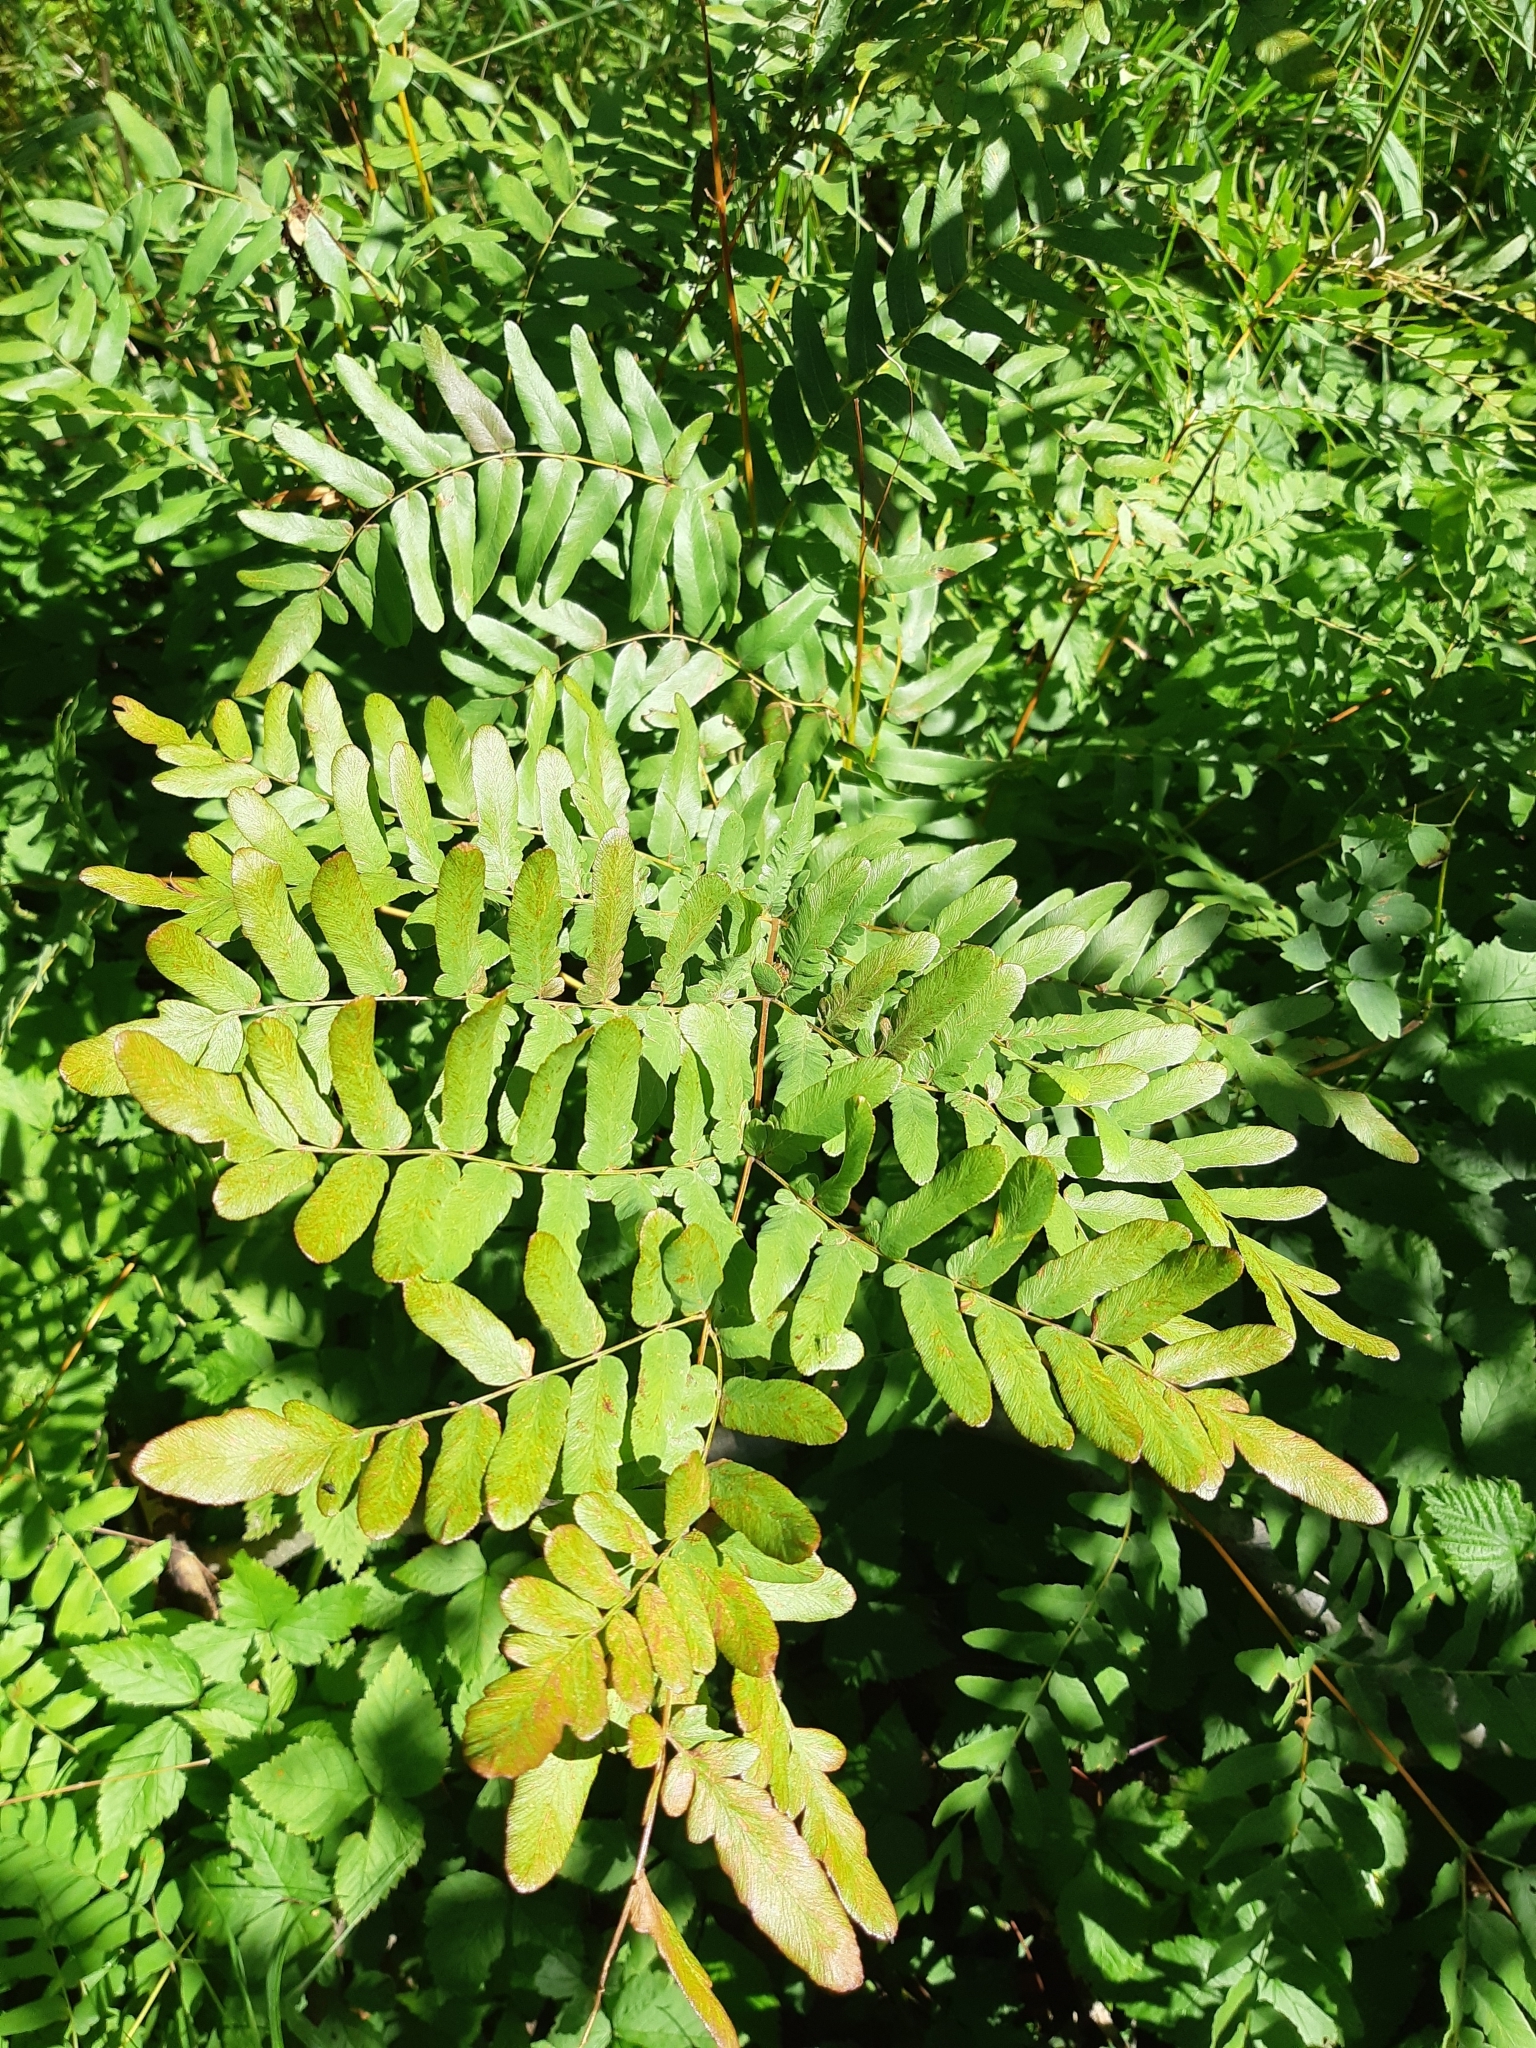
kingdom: Plantae
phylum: Tracheophyta
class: Polypodiopsida
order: Osmundales
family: Osmundaceae
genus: Osmunda
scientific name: Osmunda spectabilis
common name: American royal fern
